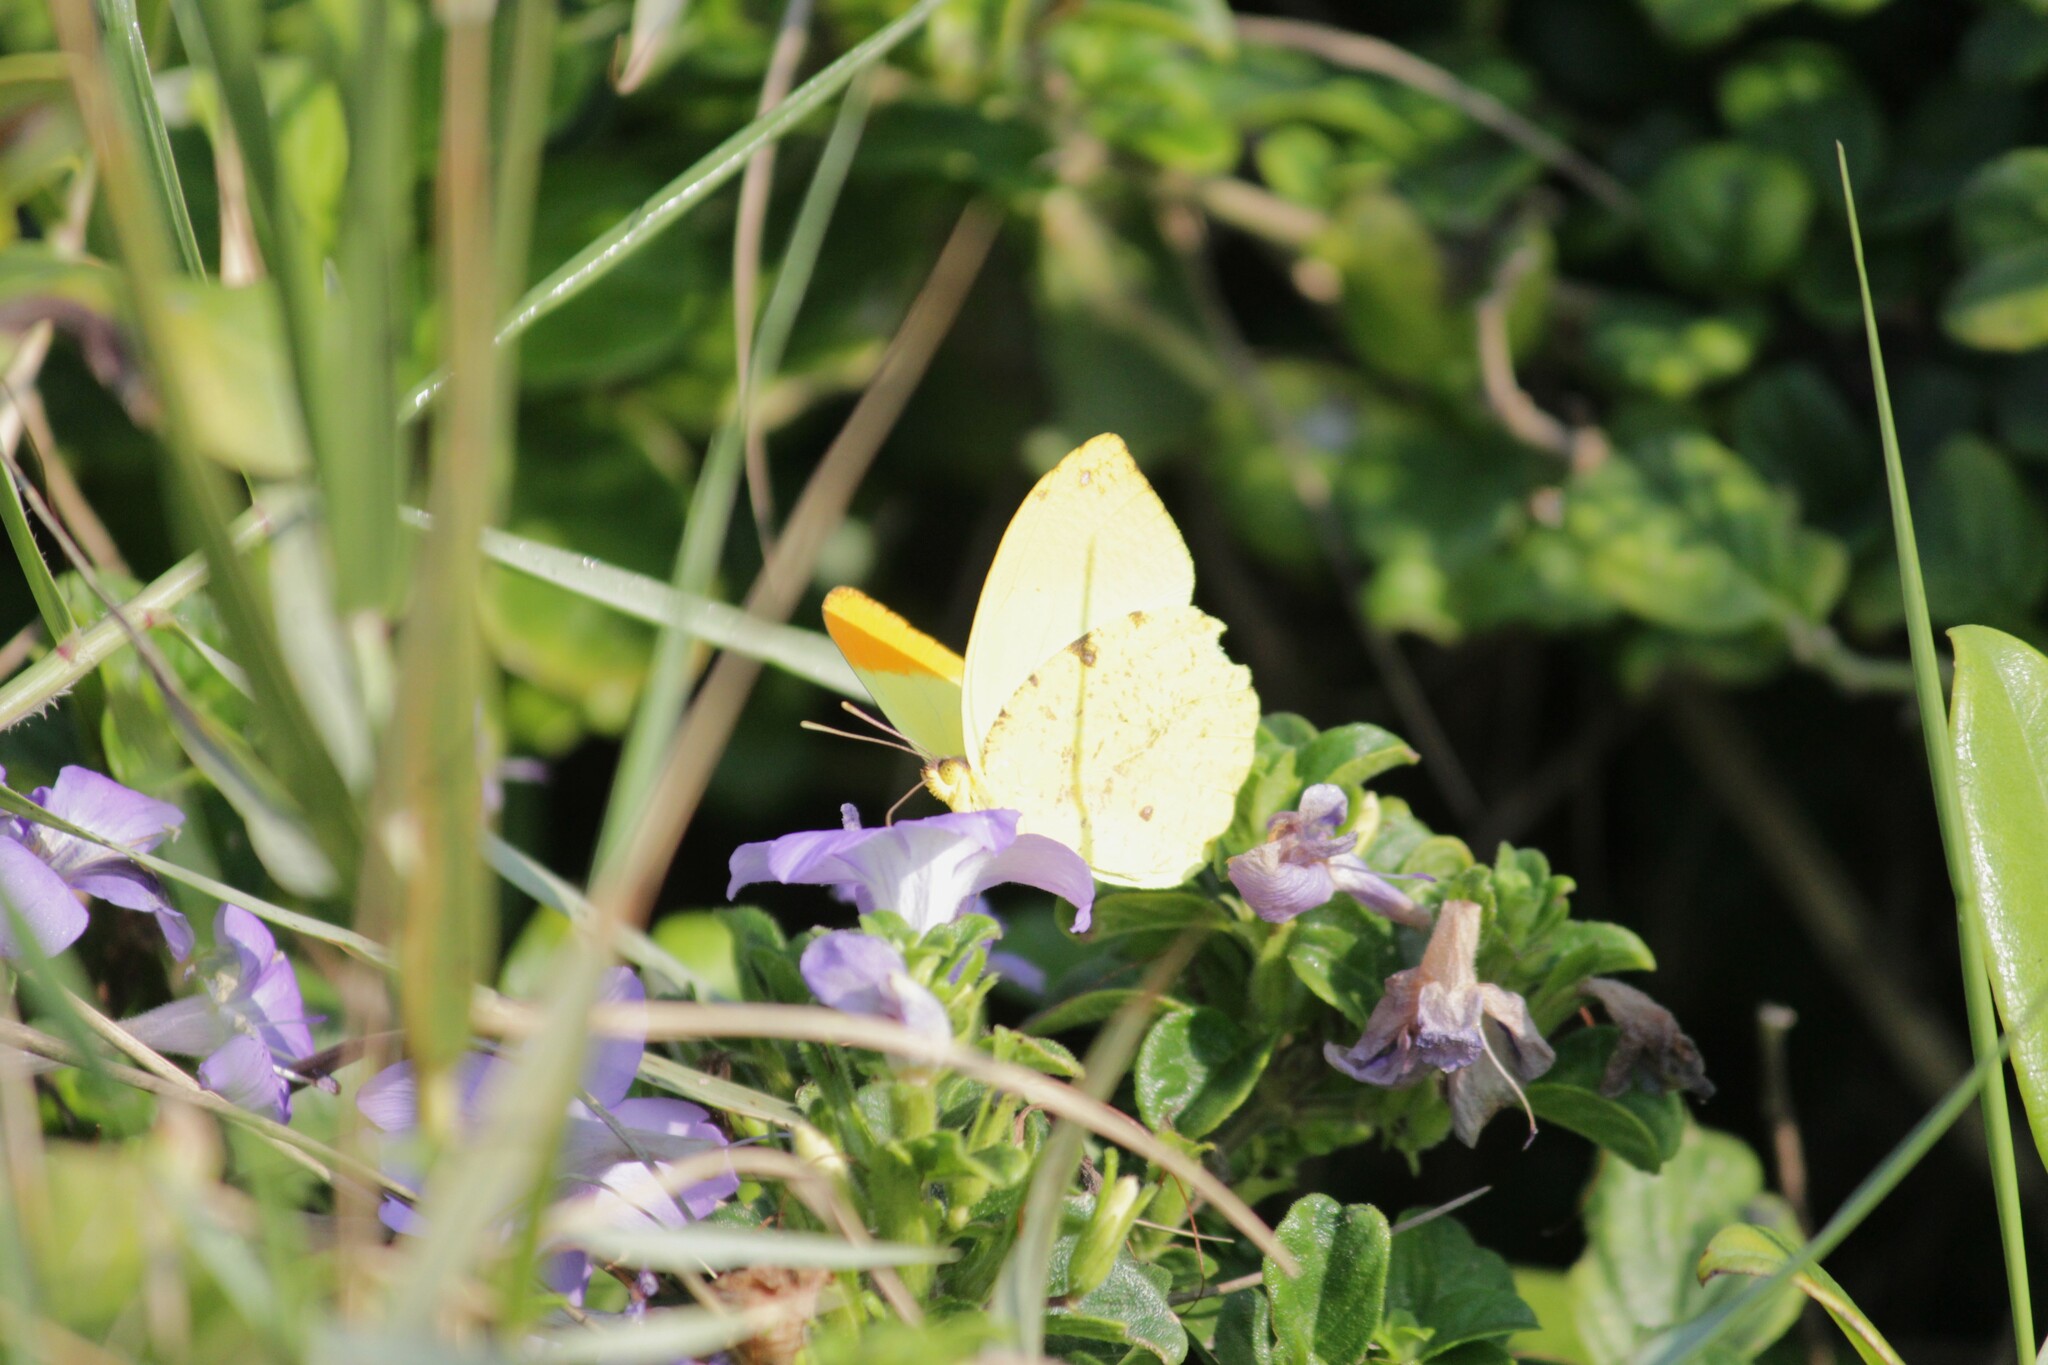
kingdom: Animalia
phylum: Arthropoda
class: Insecta
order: Lepidoptera
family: Pieridae
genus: Eronia
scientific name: Eronia leda
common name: Autumn leaf vagrant
